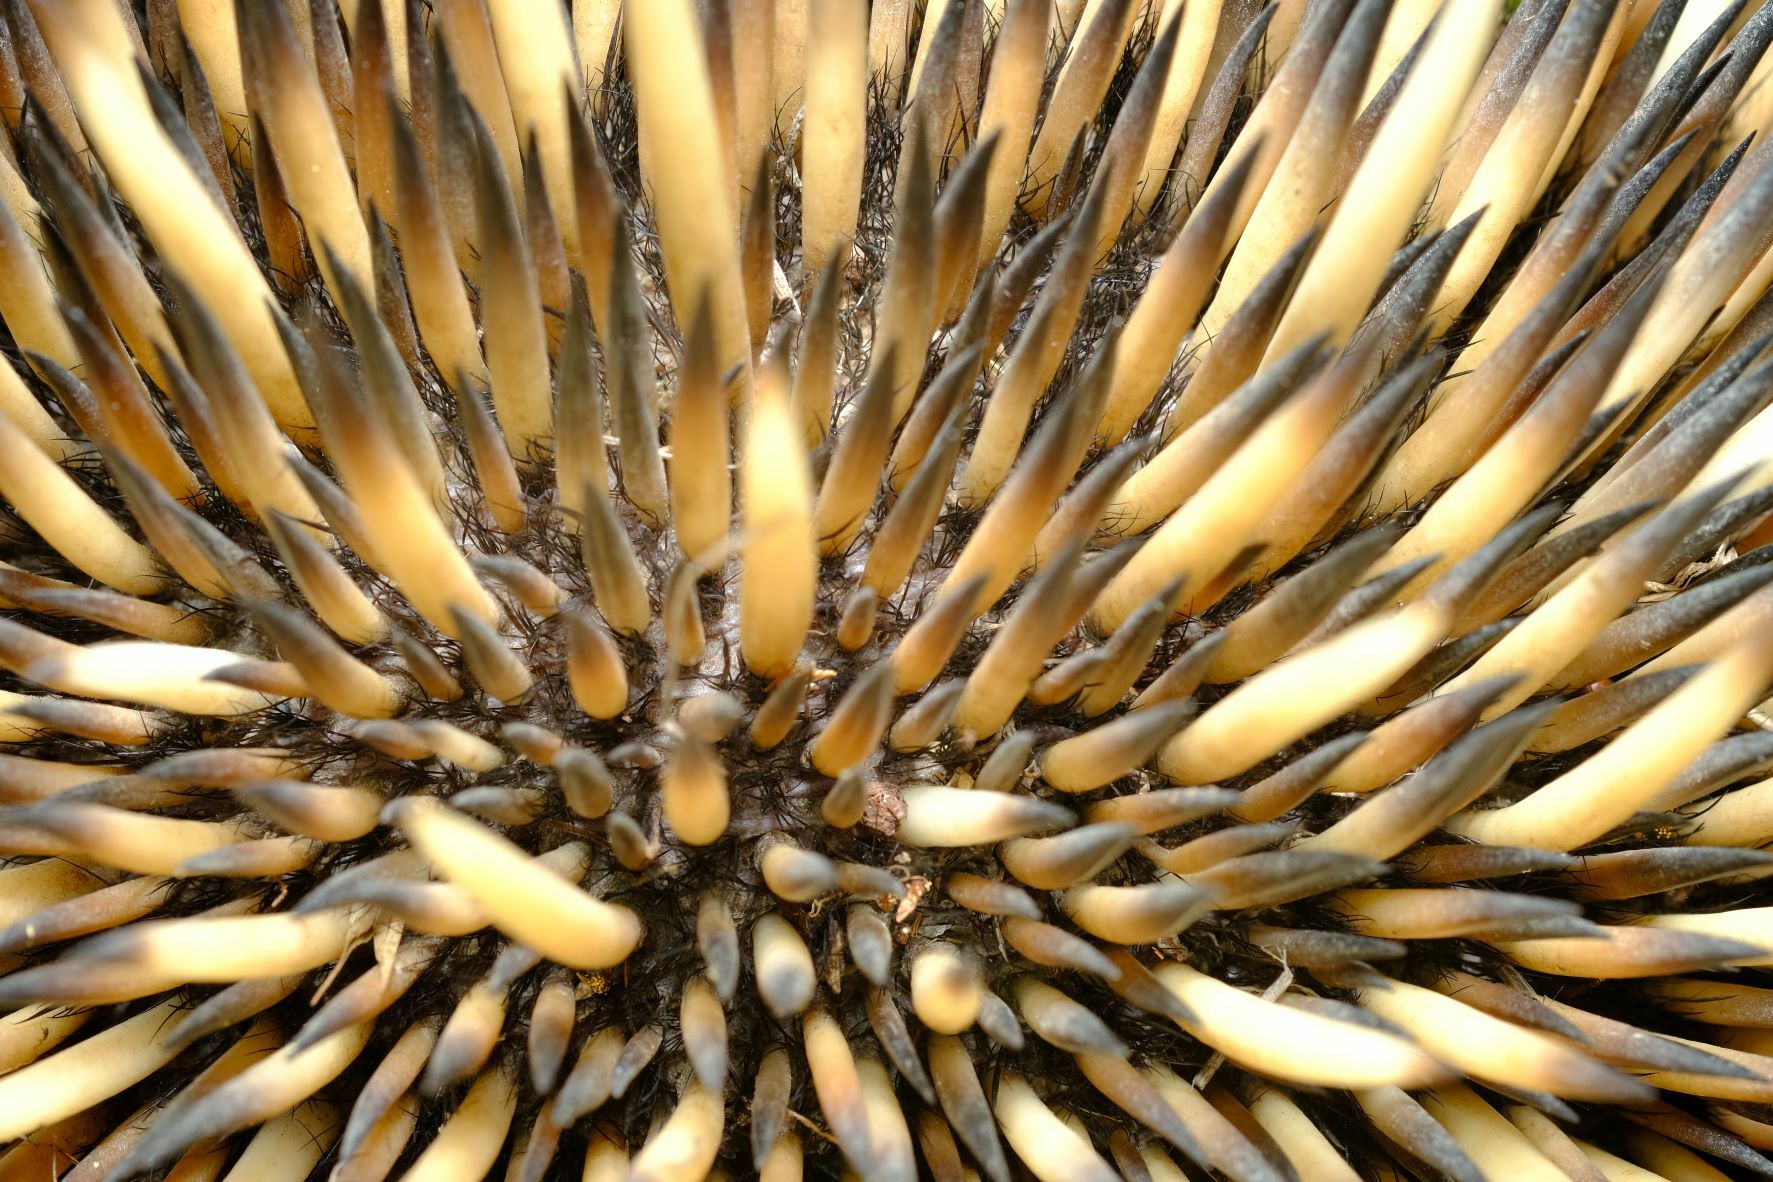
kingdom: Animalia
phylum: Chordata
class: Mammalia
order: Monotremata
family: Tachyglossidae
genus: Tachyglossus
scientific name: Tachyglossus aculeatus
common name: Short-beaked echidna
